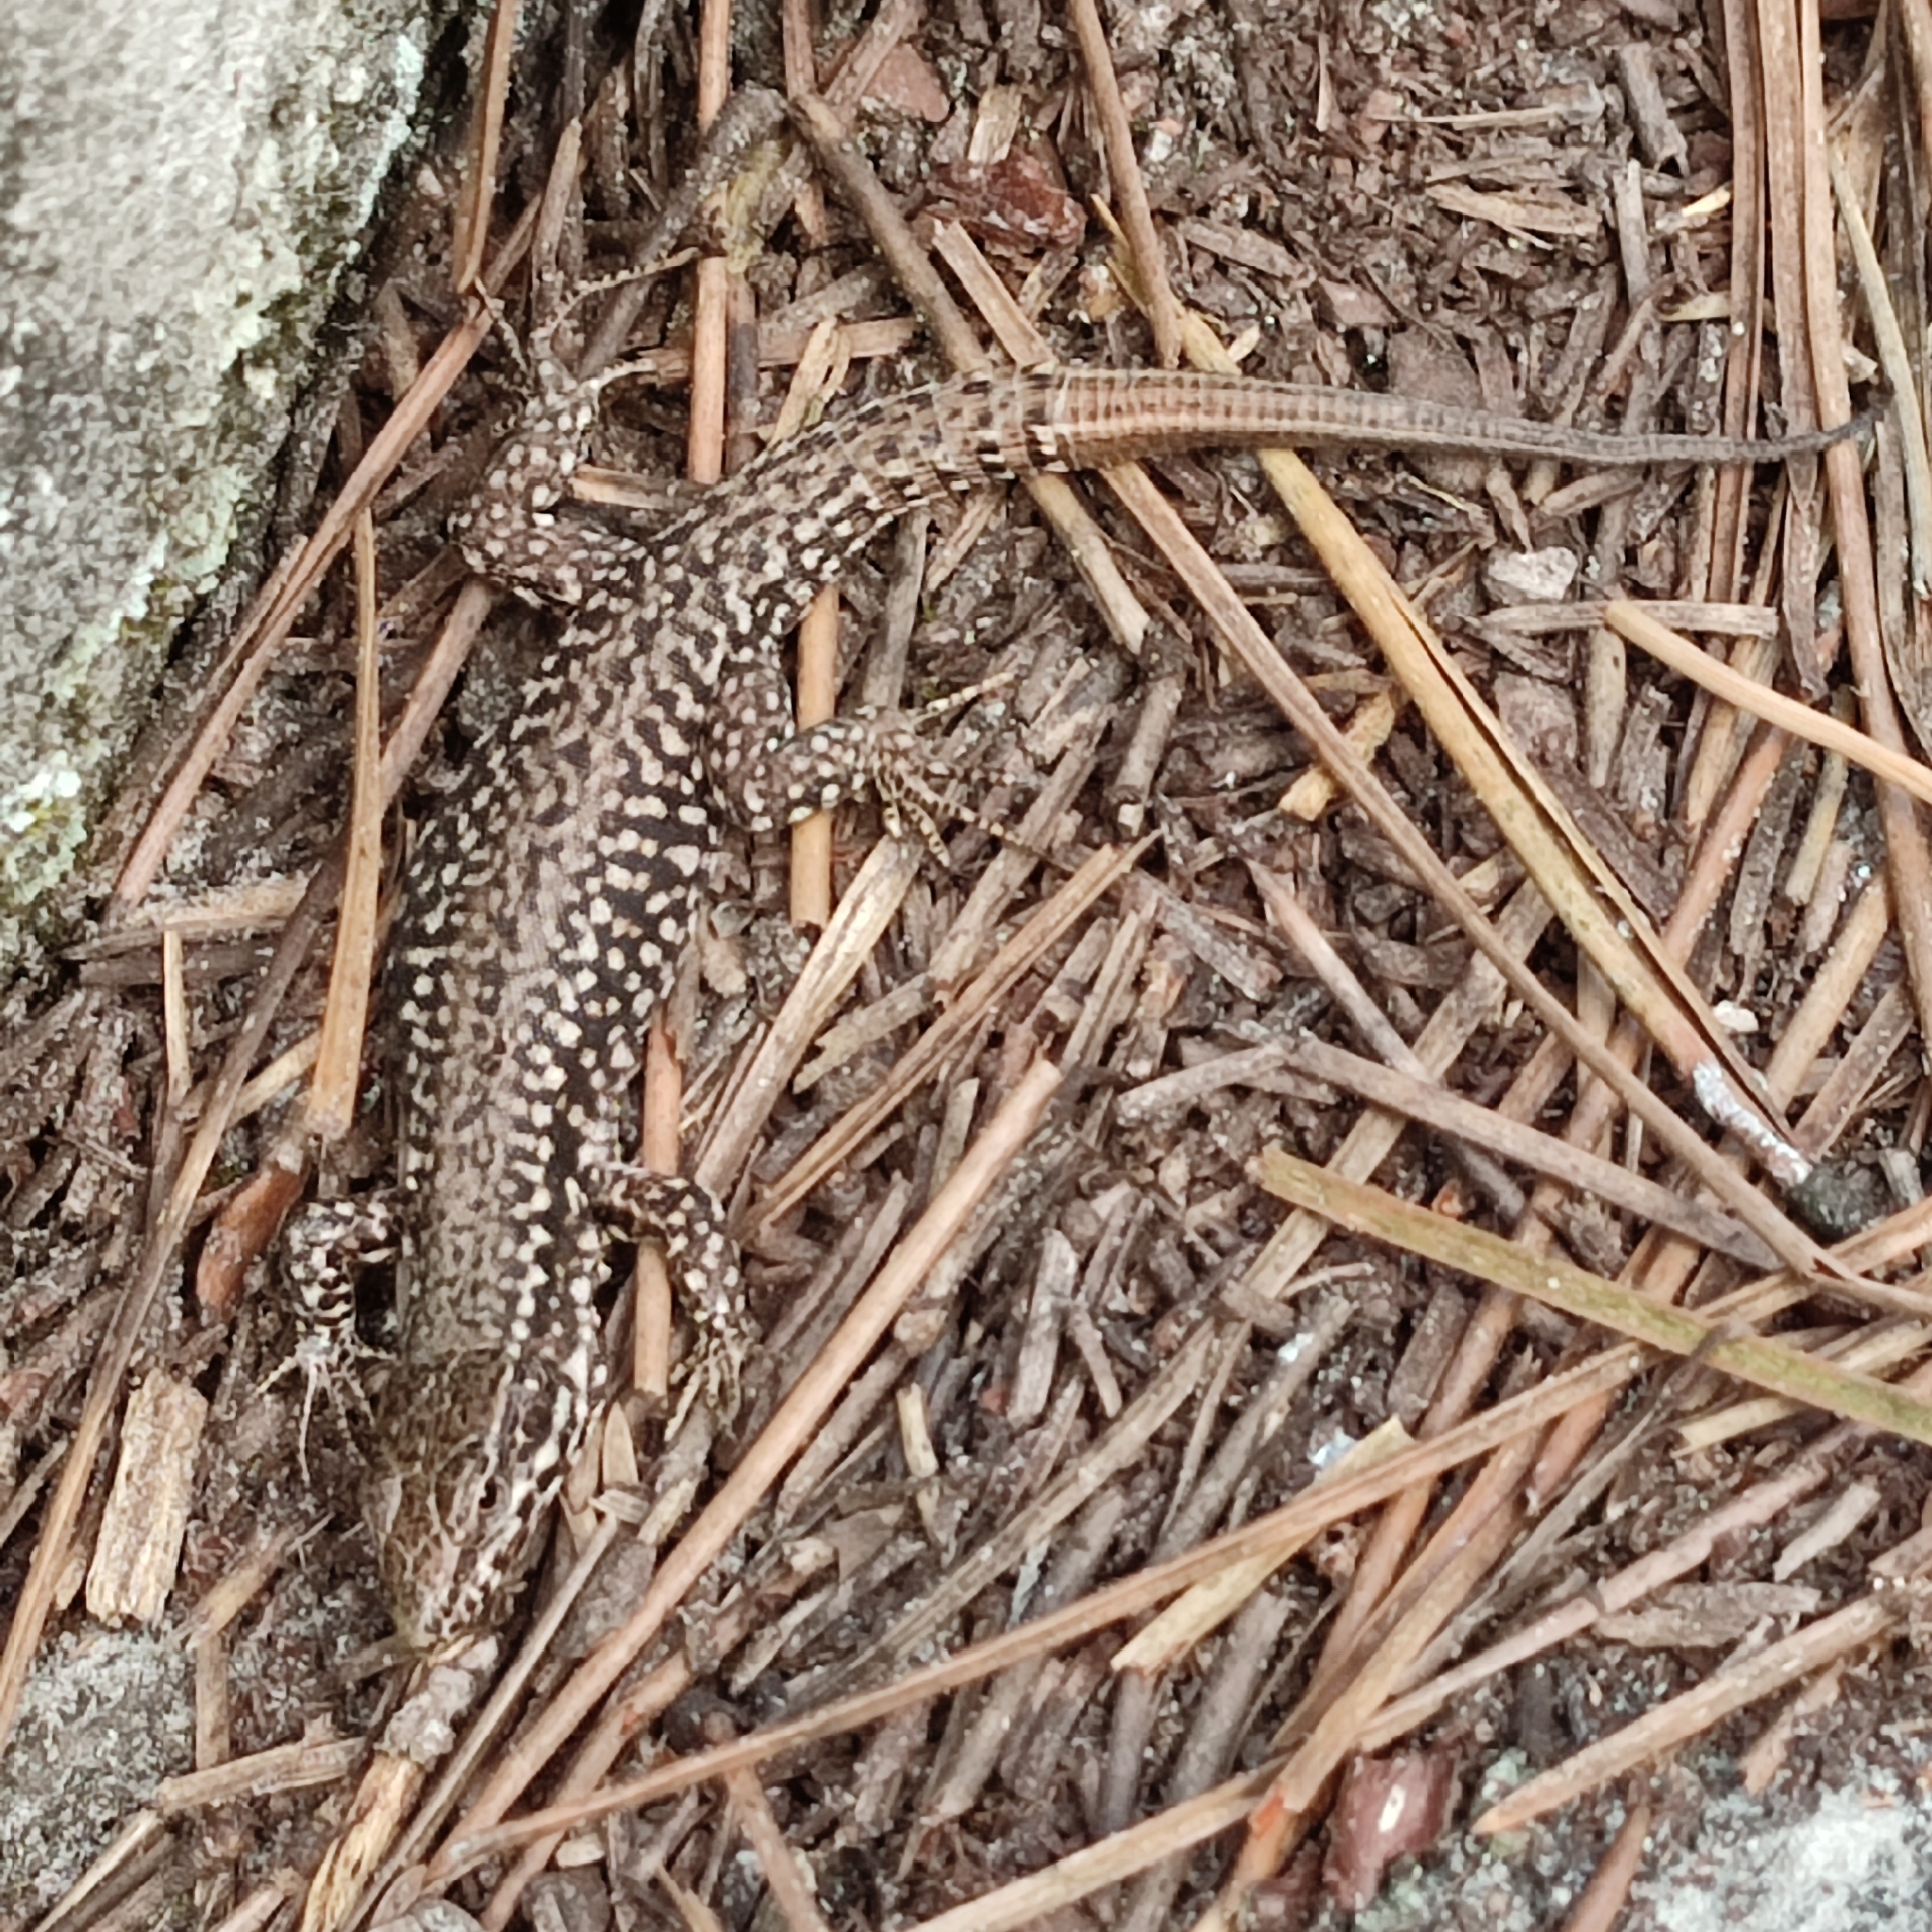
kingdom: Animalia
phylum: Chordata
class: Squamata
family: Lacertidae
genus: Podarcis
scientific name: Podarcis muralis
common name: Common wall lizard
